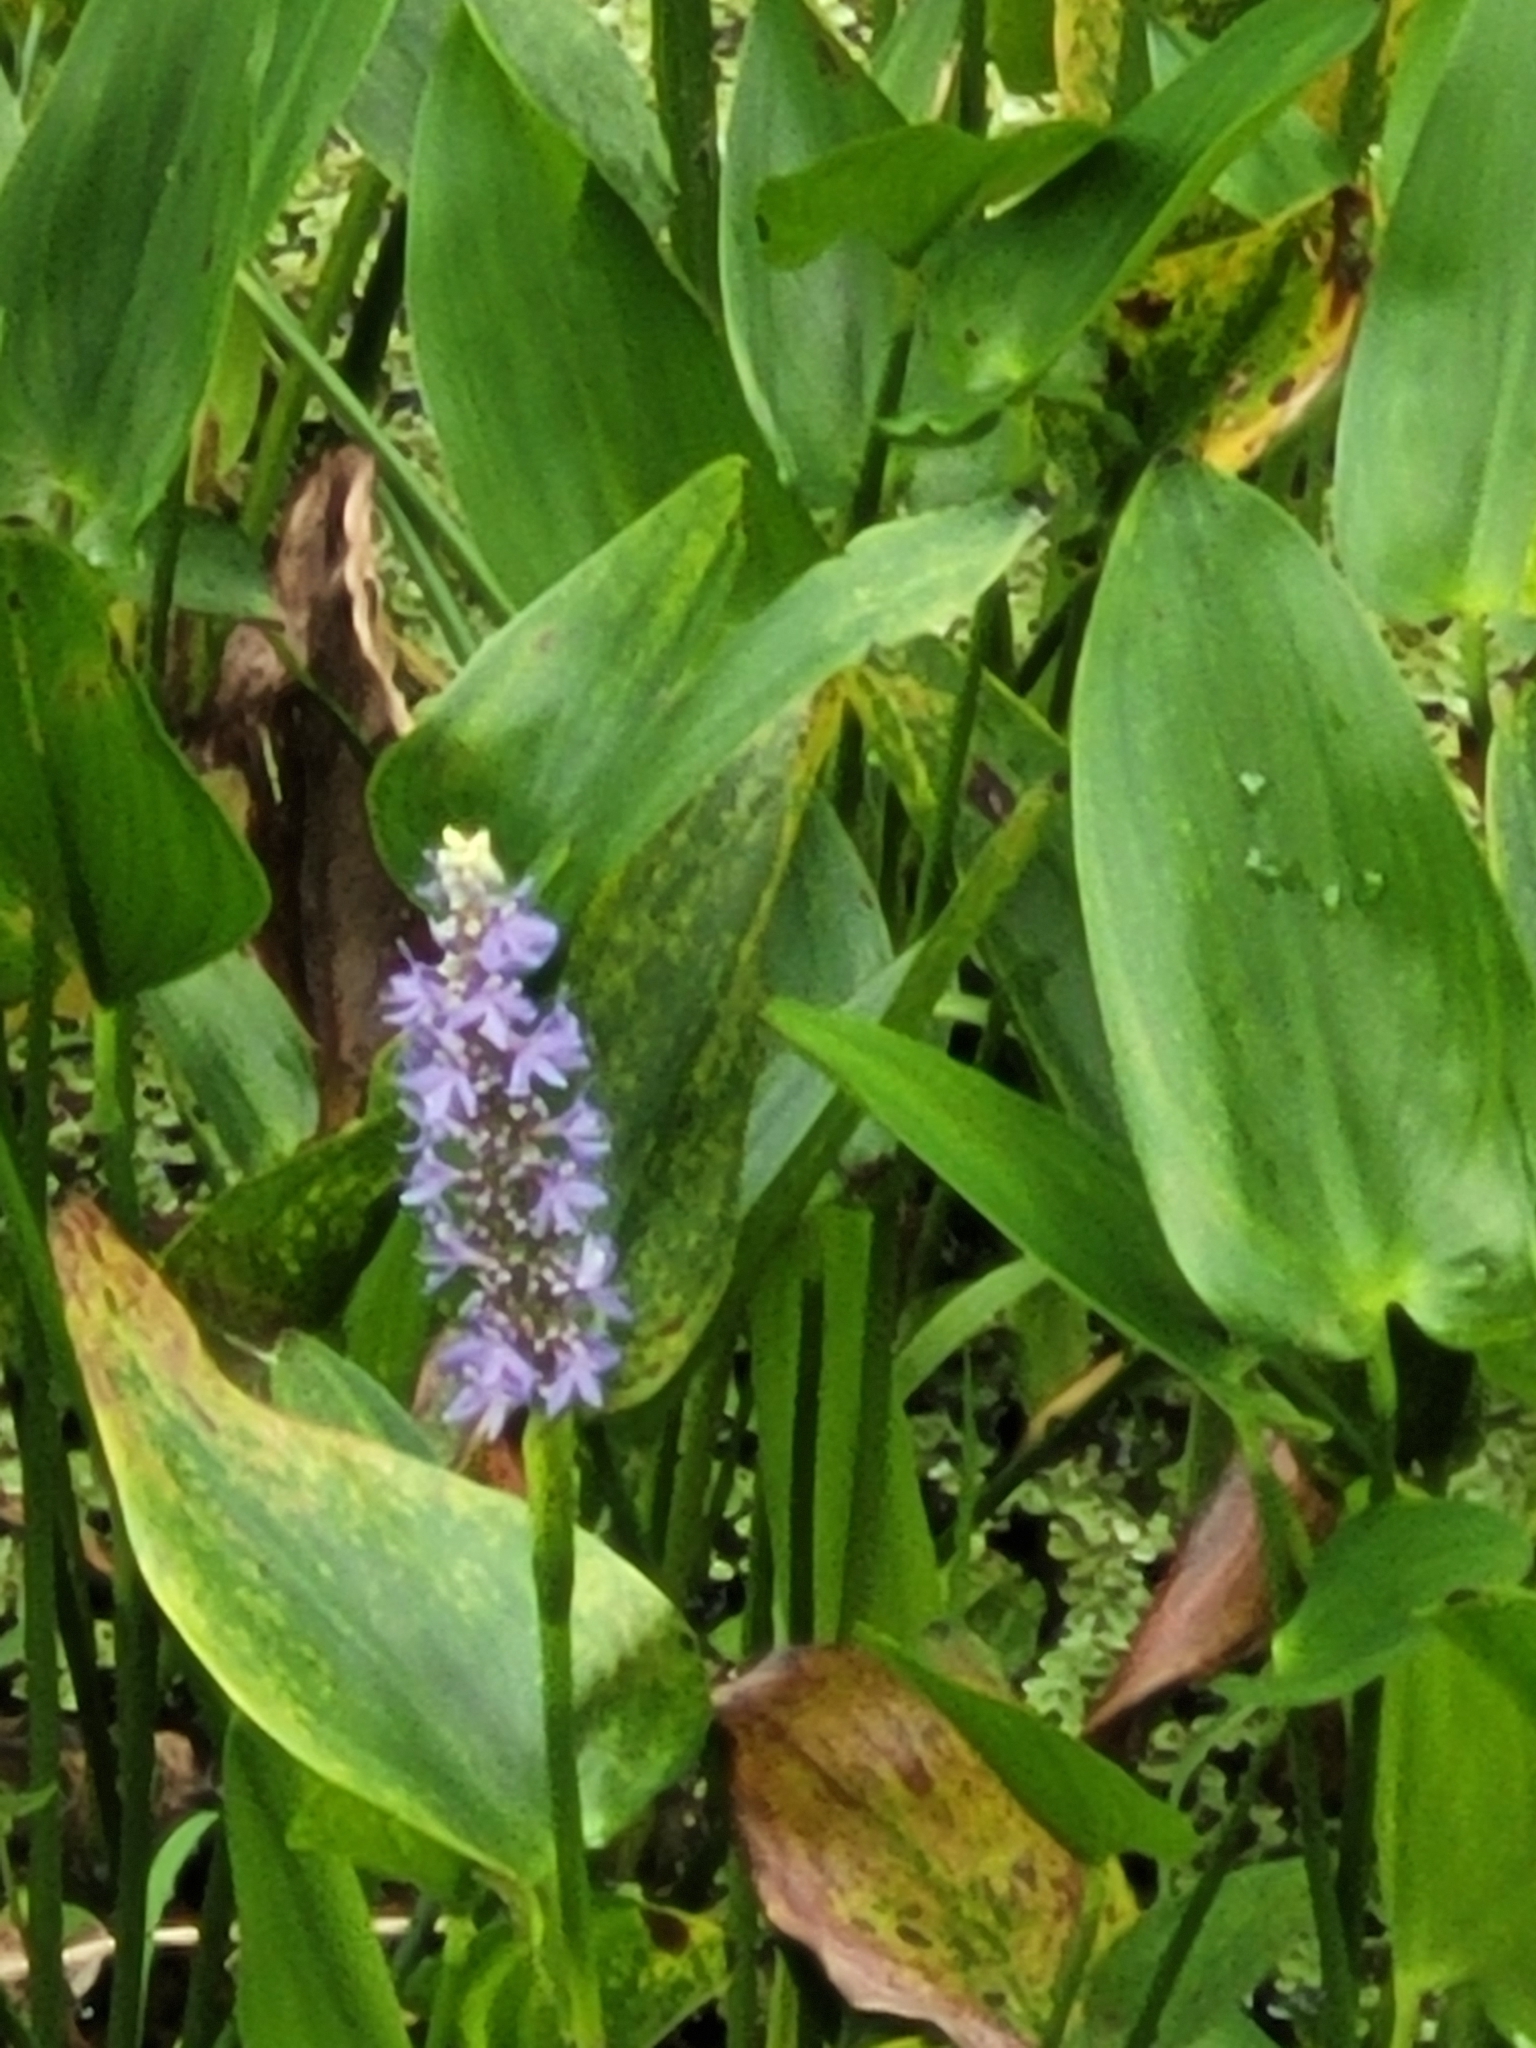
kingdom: Plantae
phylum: Tracheophyta
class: Liliopsida
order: Commelinales
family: Pontederiaceae
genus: Pontederia
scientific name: Pontederia cordata
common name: Pickerelweed
